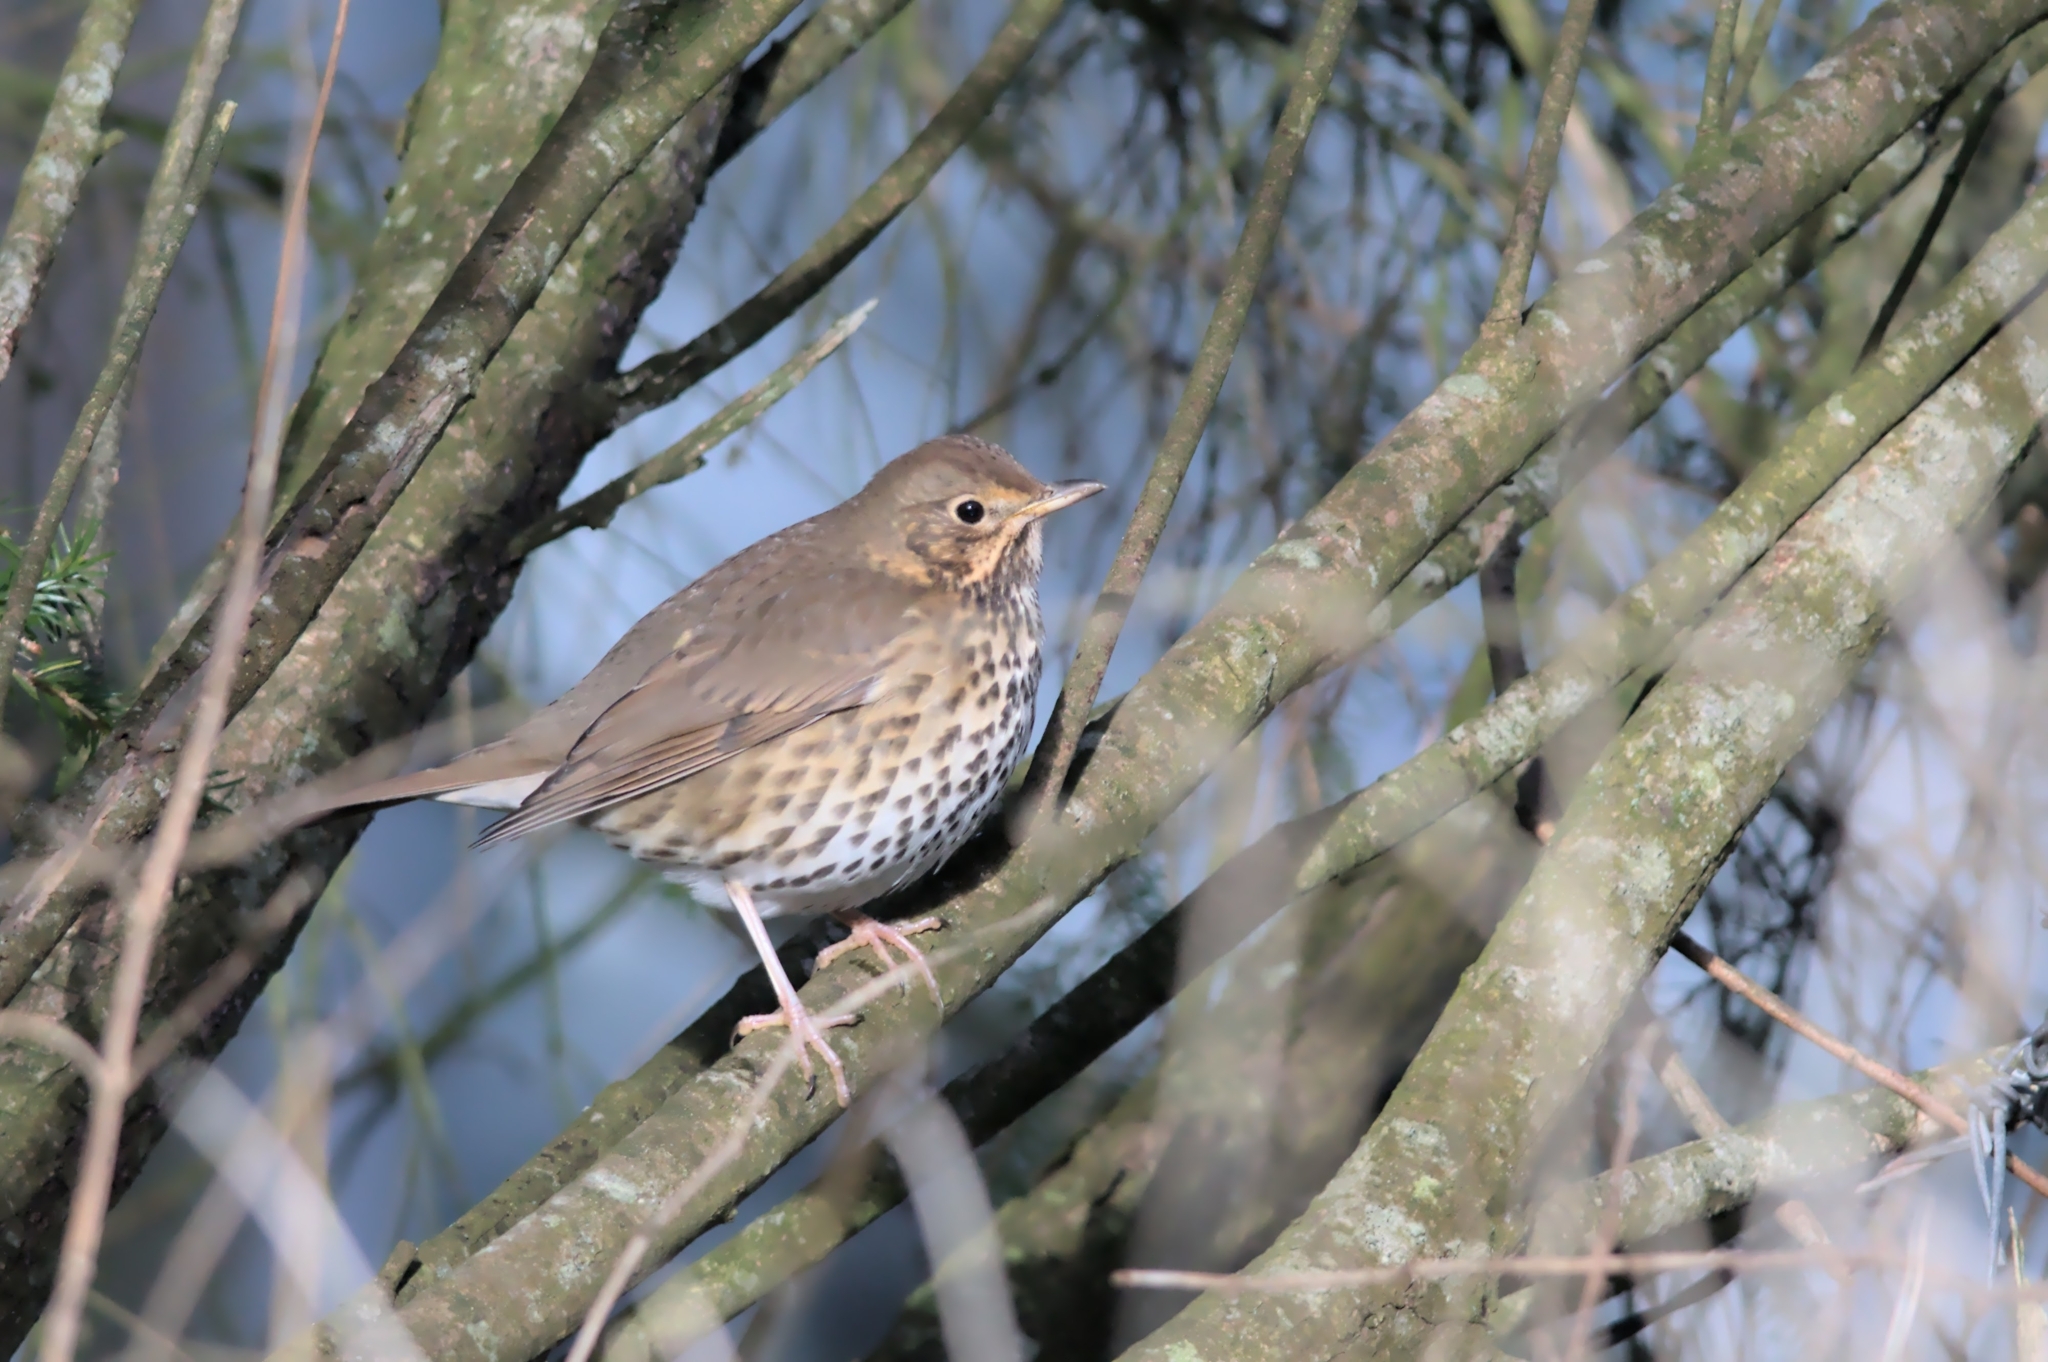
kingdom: Animalia
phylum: Chordata
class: Aves
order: Passeriformes
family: Turdidae
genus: Turdus
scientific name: Turdus philomelos
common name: Song thrush
